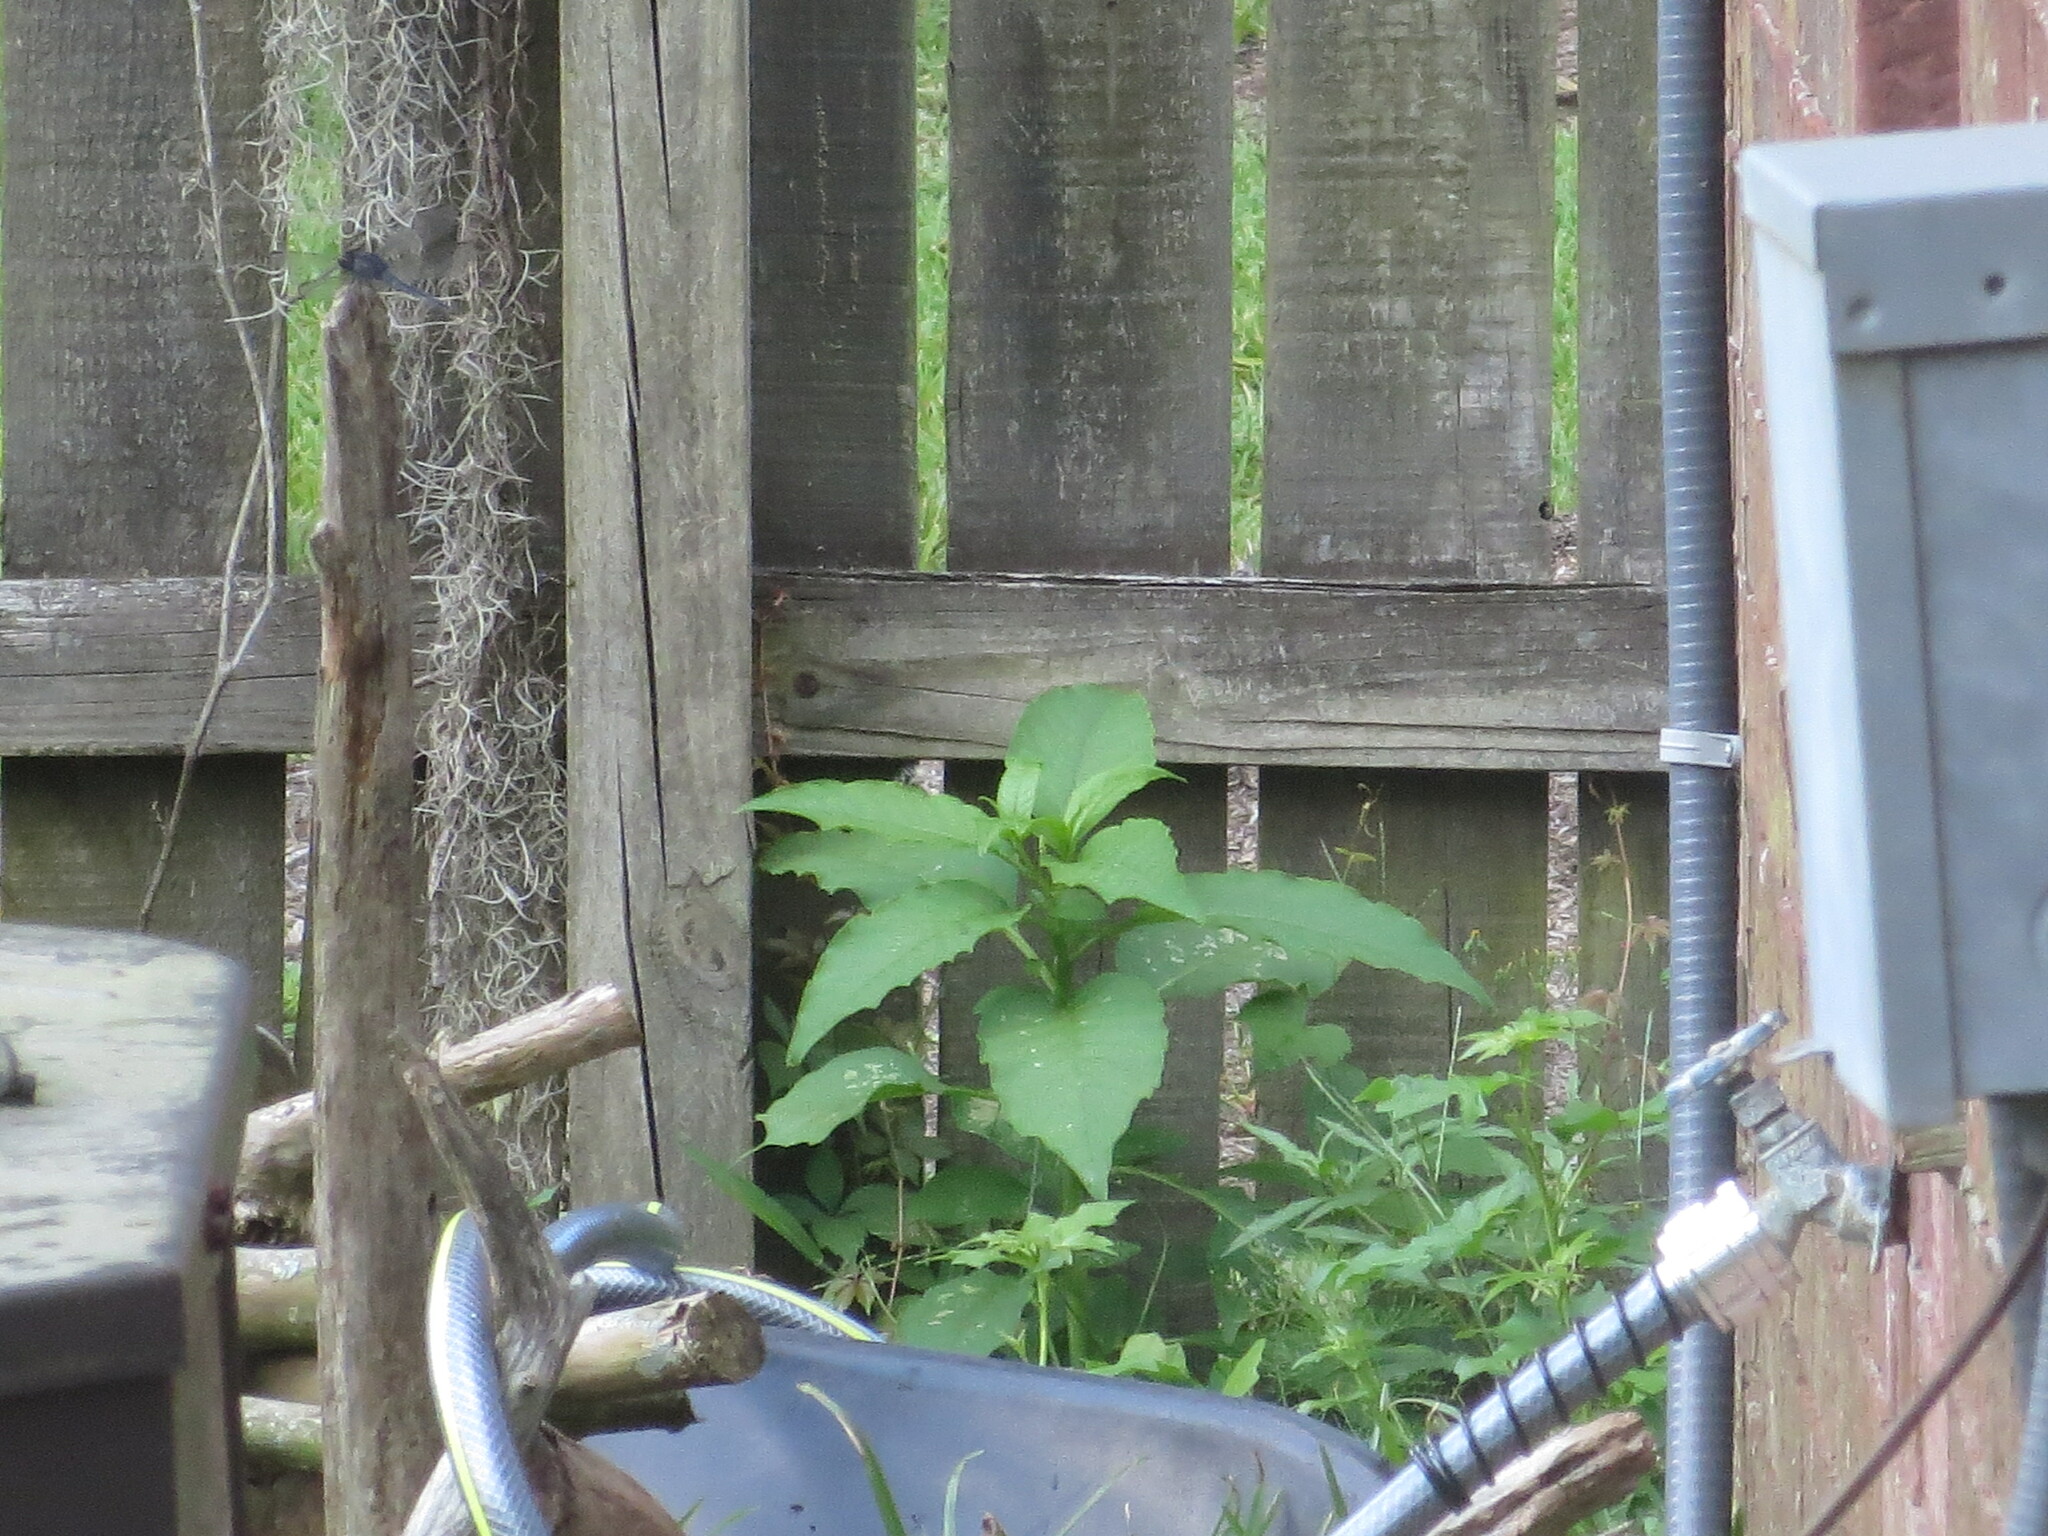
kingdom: Plantae
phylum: Tracheophyta
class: Magnoliopsida
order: Caryophyllales
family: Phytolaccaceae
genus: Phytolacca
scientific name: Phytolacca americana
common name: American pokeweed
